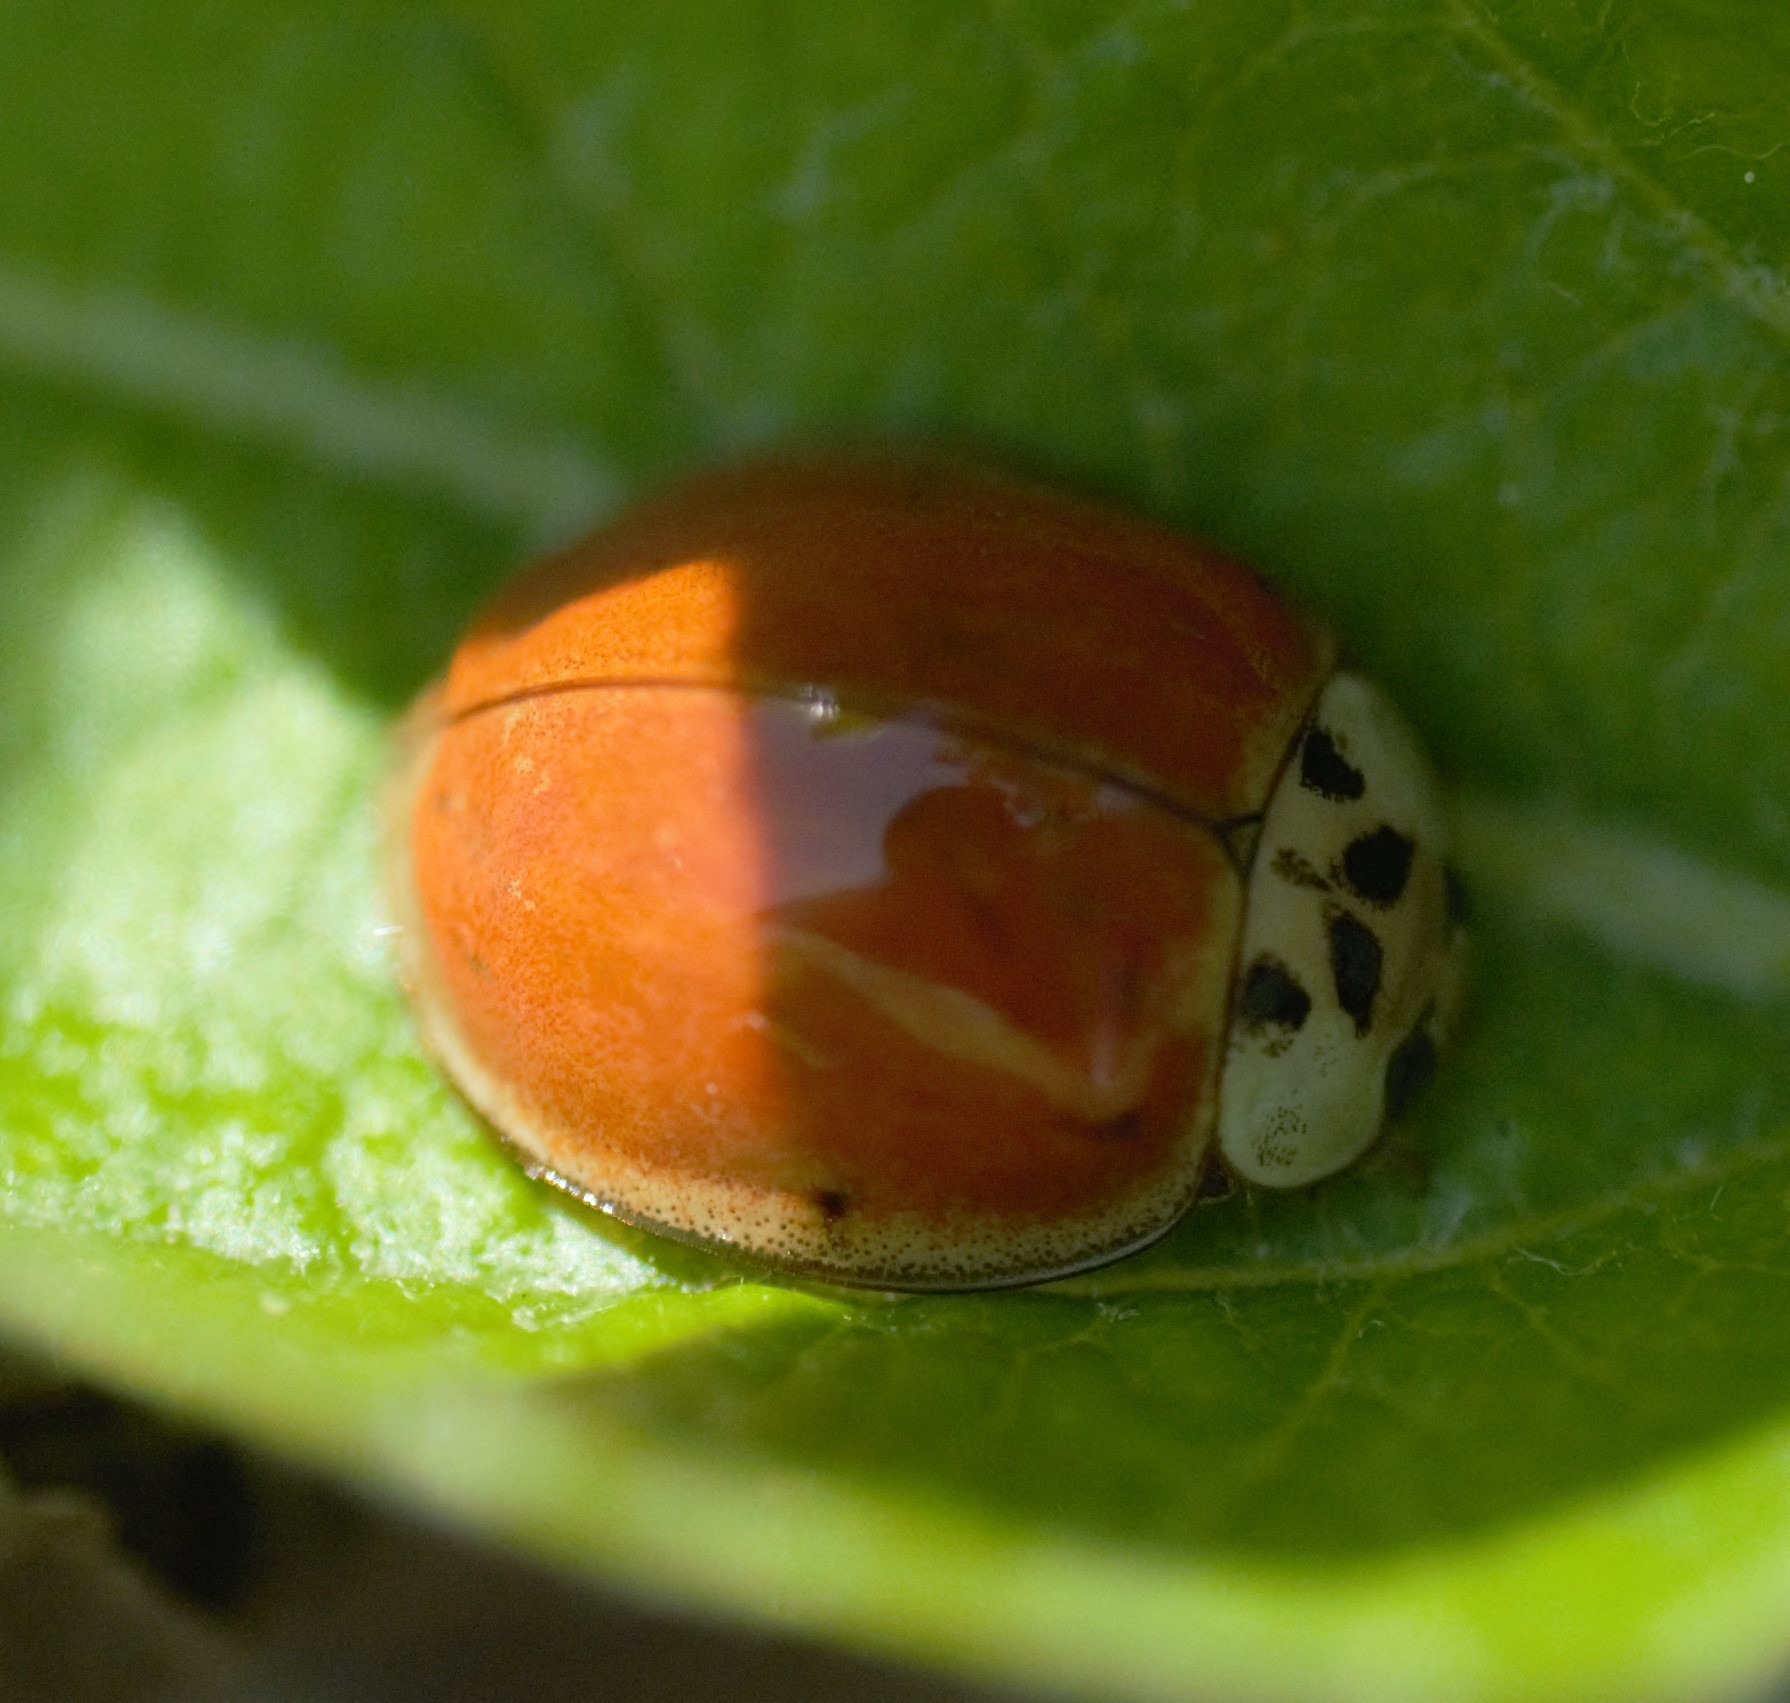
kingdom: Animalia
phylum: Arthropoda
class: Insecta
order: Coleoptera
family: Coccinellidae
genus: Harmonia
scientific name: Harmonia axyridis
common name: Harlequin ladybird
